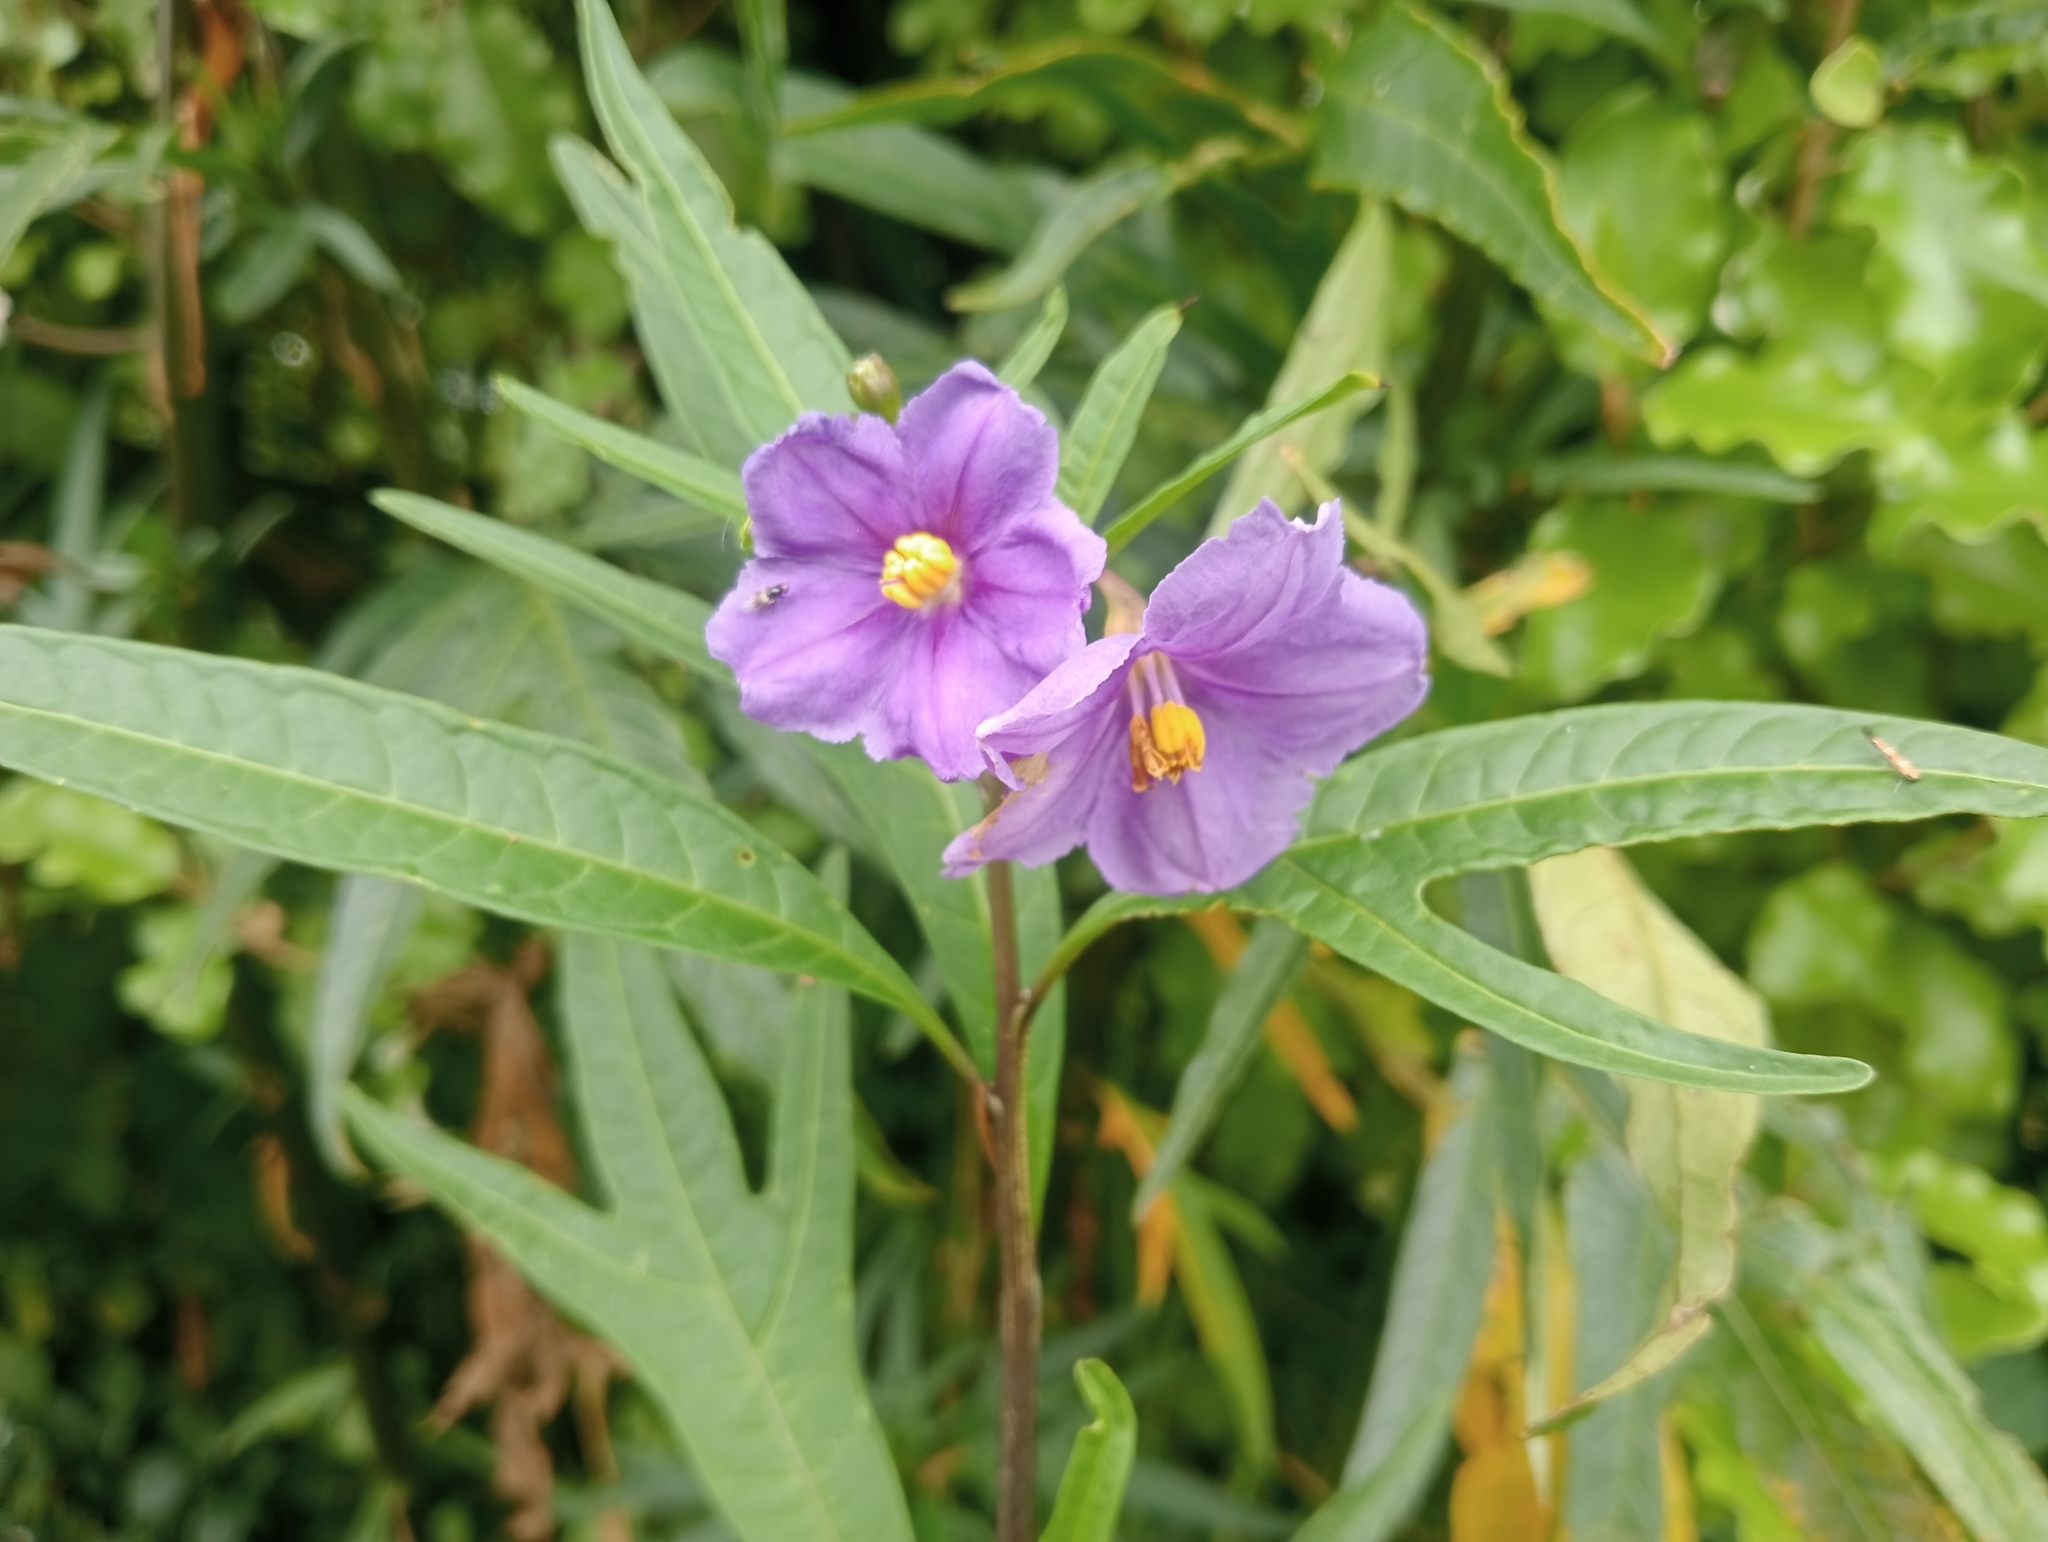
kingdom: Plantae
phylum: Tracheophyta
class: Magnoliopsida
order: Solanales
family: Solanaceae
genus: Solanum
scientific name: Solanum laciniatum
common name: Kangaroo-apple
